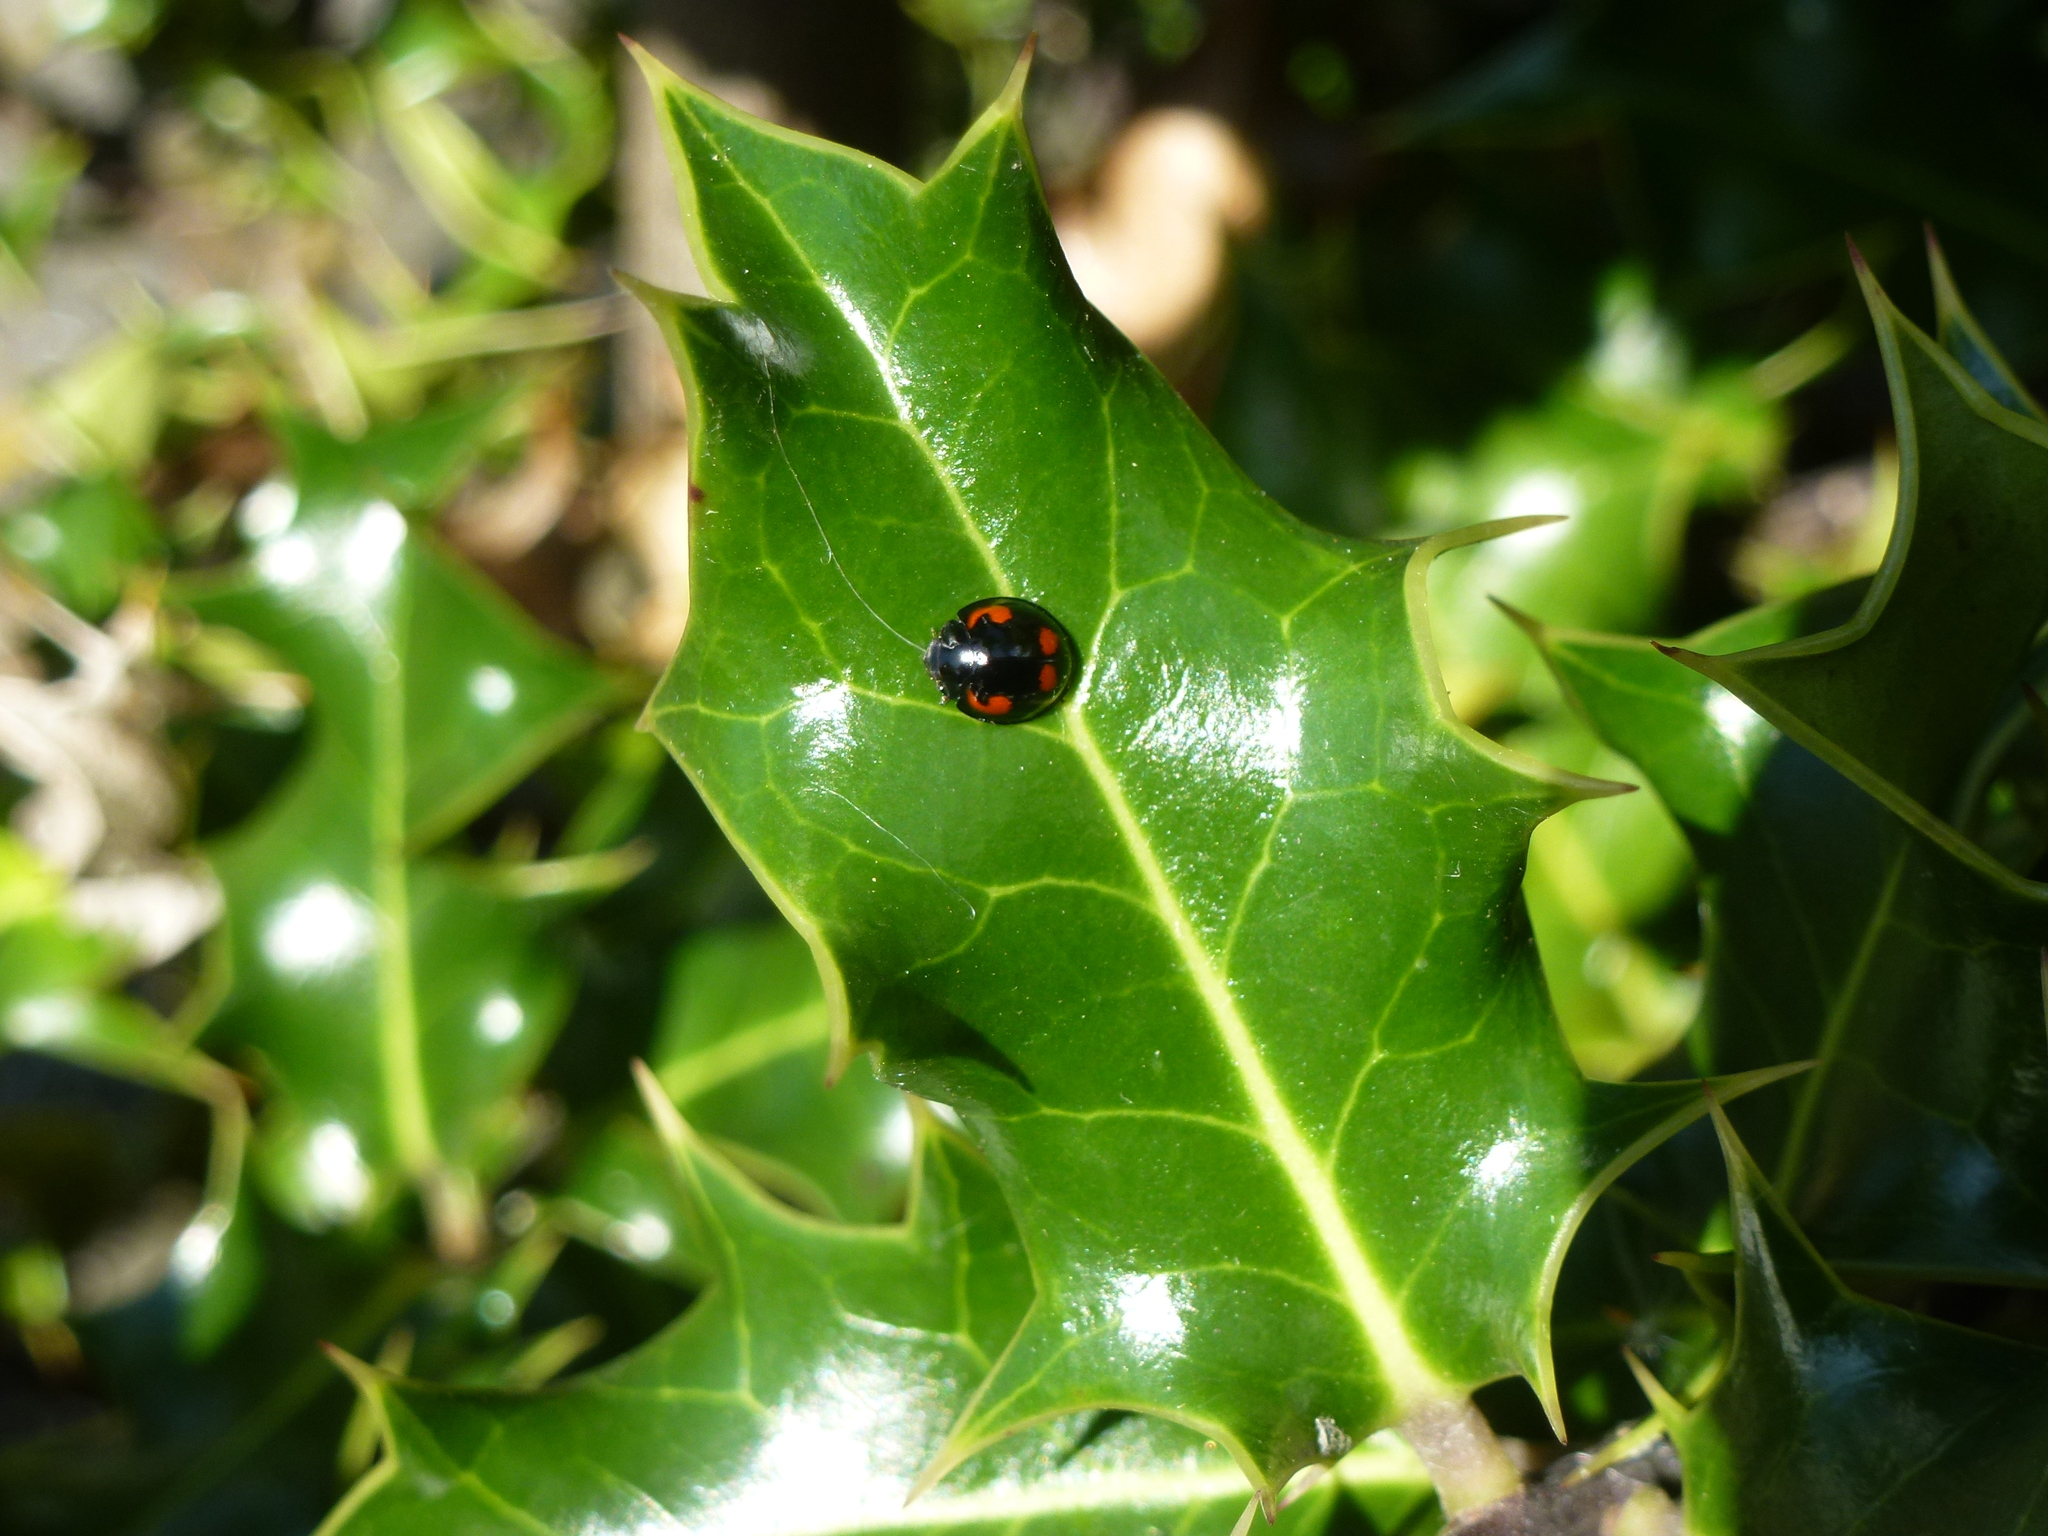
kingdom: Animalia
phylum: Arthropoda
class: Insecta
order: Coleoptera
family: Coccinellidae
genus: Brumus
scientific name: Brumus quadripustulatus
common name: Ladybird beetle
